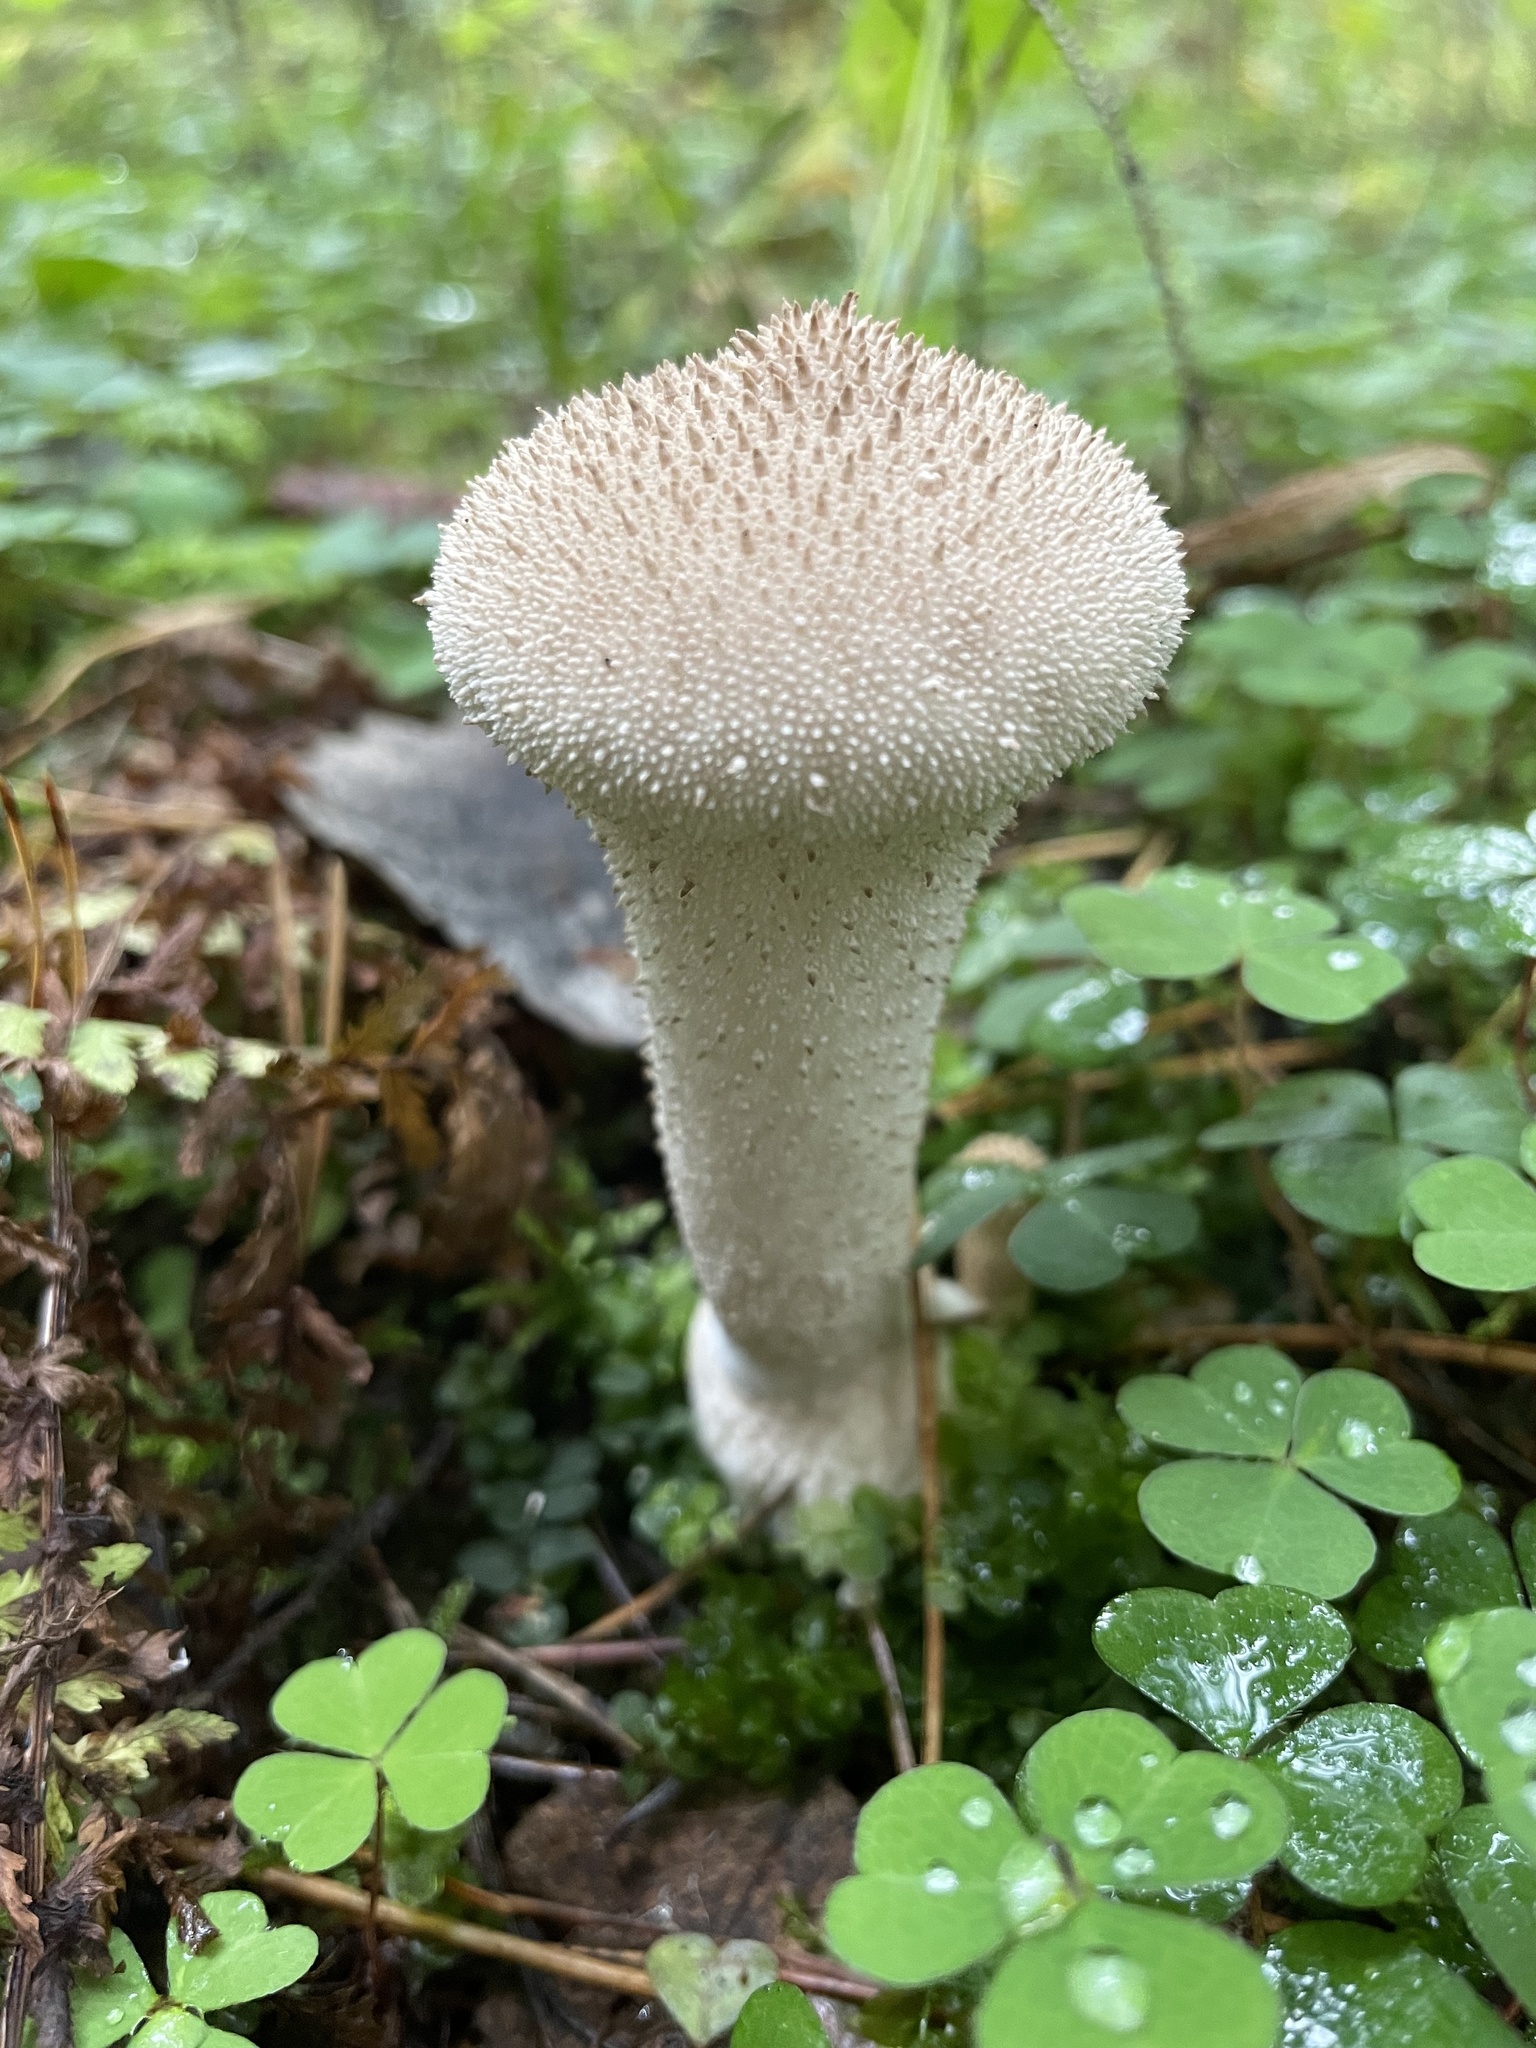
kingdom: Fungi
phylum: Basidiomycota
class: Agaricomycetes
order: Agaricales
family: Lycoperdaceae
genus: Lycoperdon
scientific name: Lycoperdon perlatum
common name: Common puffball
